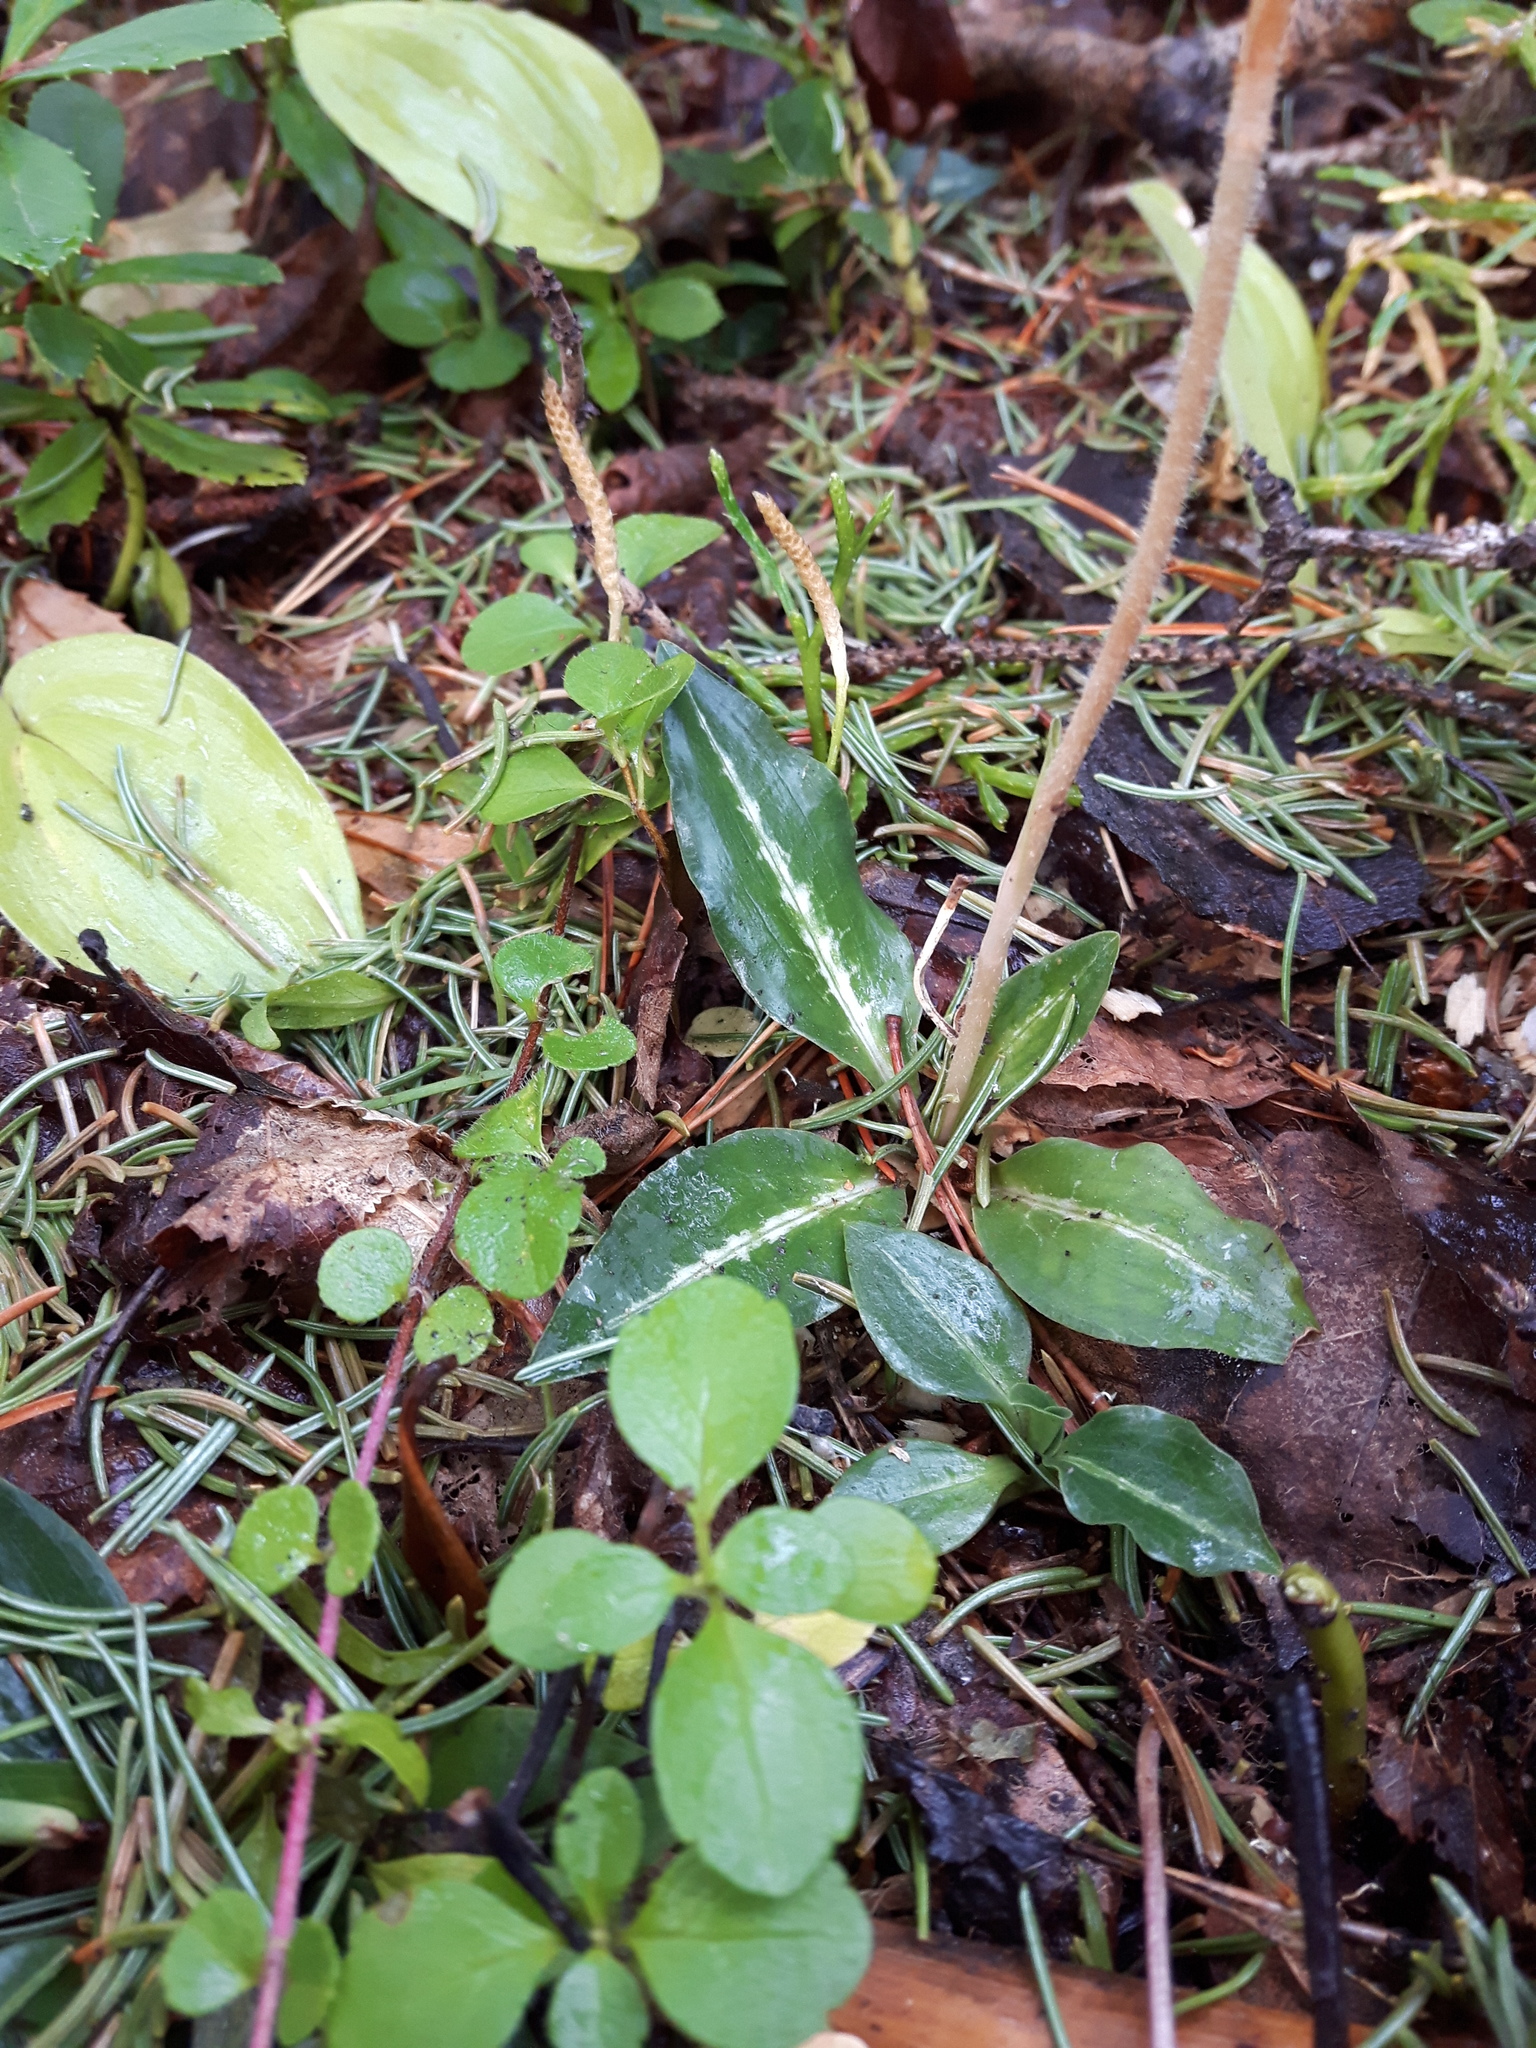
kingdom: Plantae
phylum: Tracheophyta
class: Liliopsida
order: Asparagales
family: Orchidaceae
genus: Goodyera
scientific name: Goodyera oblongifolia
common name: Giant rattlesnake-plantain
